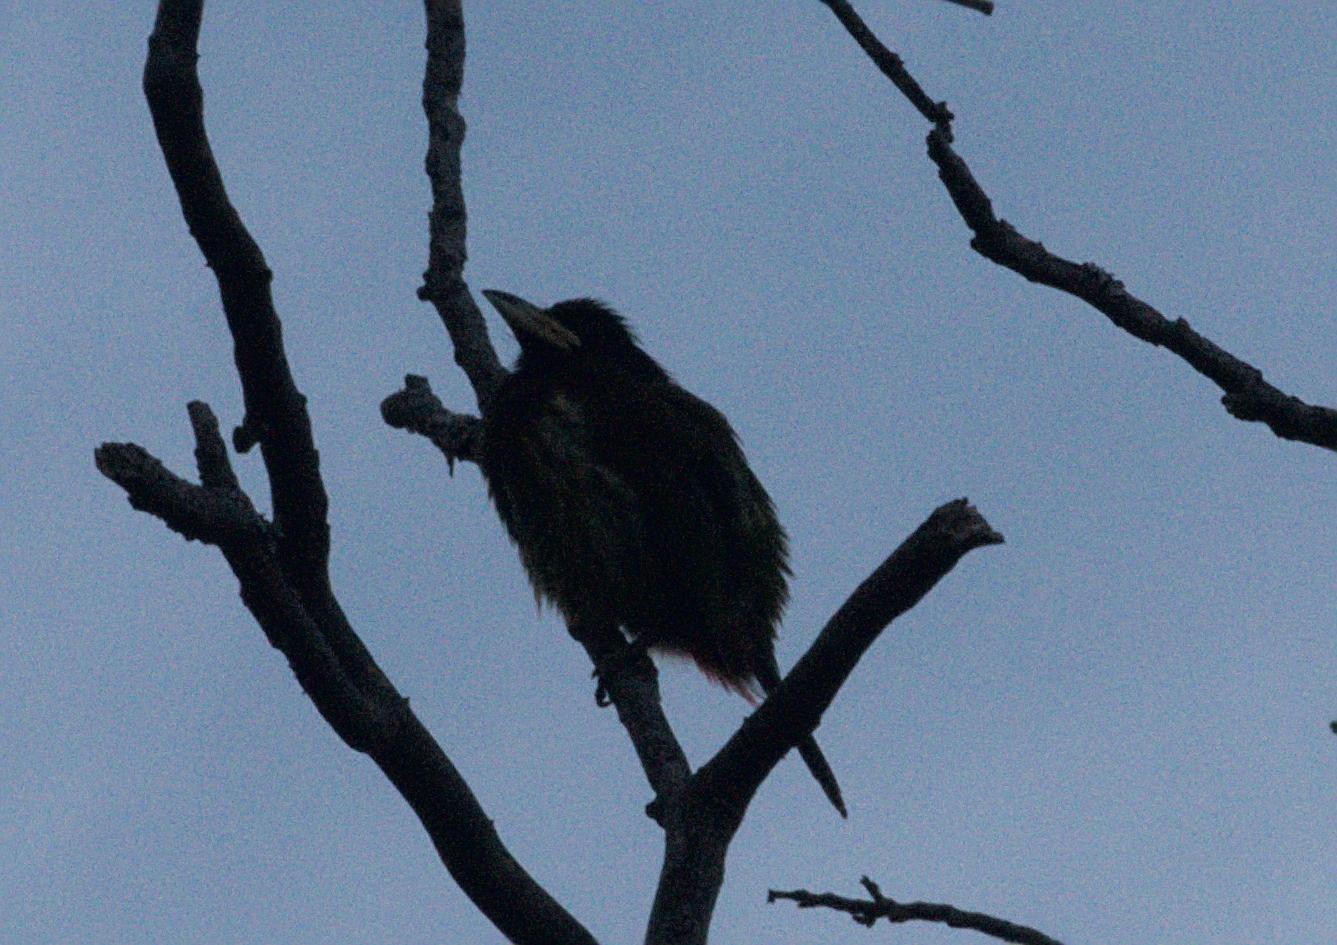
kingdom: Animalia
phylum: Chordata
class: Aves
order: Piciformes
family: Megalaimidae
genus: Psilopogon
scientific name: Psilopogon virens
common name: Great barbet
